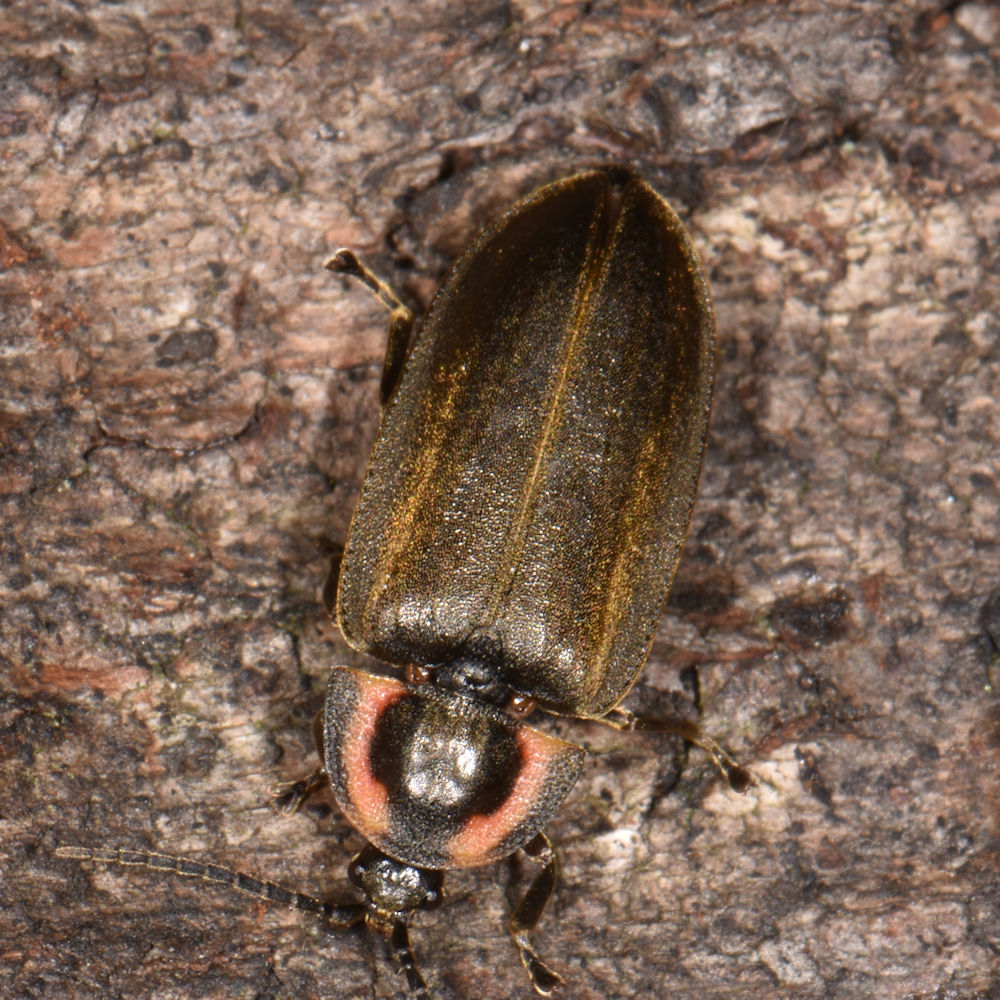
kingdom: Animalia
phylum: Arthropoda
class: Insecta
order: Coleoptera
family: Lampyridae
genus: Photinus
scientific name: Photinus corrusca
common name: Winter firefly
